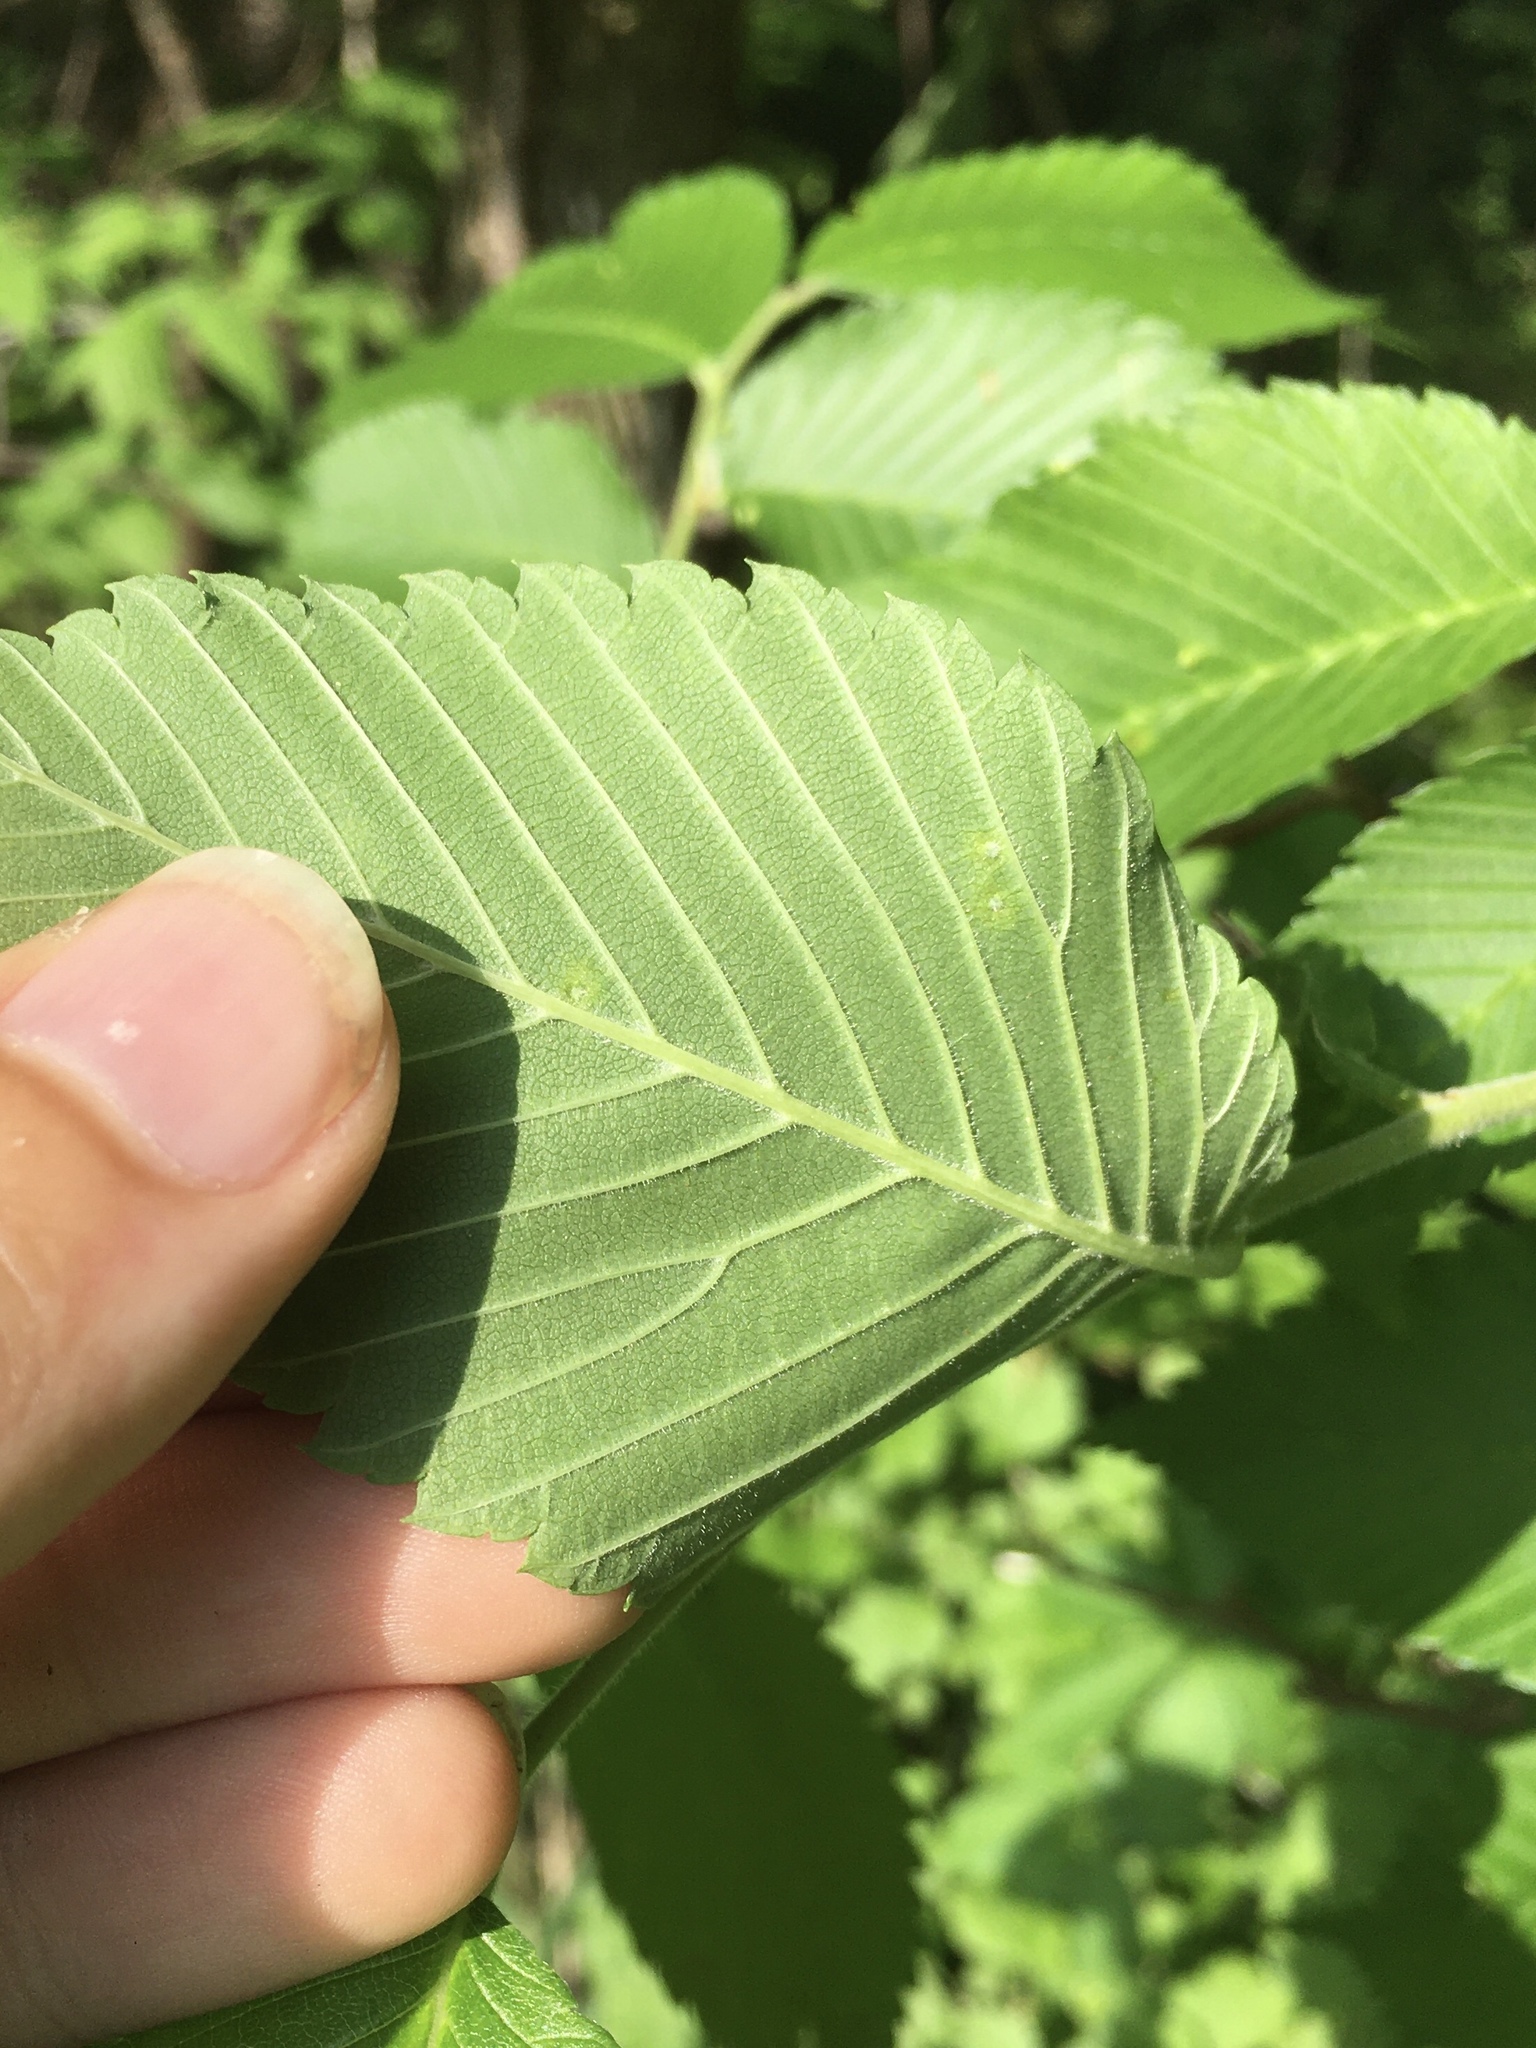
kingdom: Animalia
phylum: Arthropoda
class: Arachnida
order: Trombidiformes
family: Eriophyidae
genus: Aceria
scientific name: Aceria
